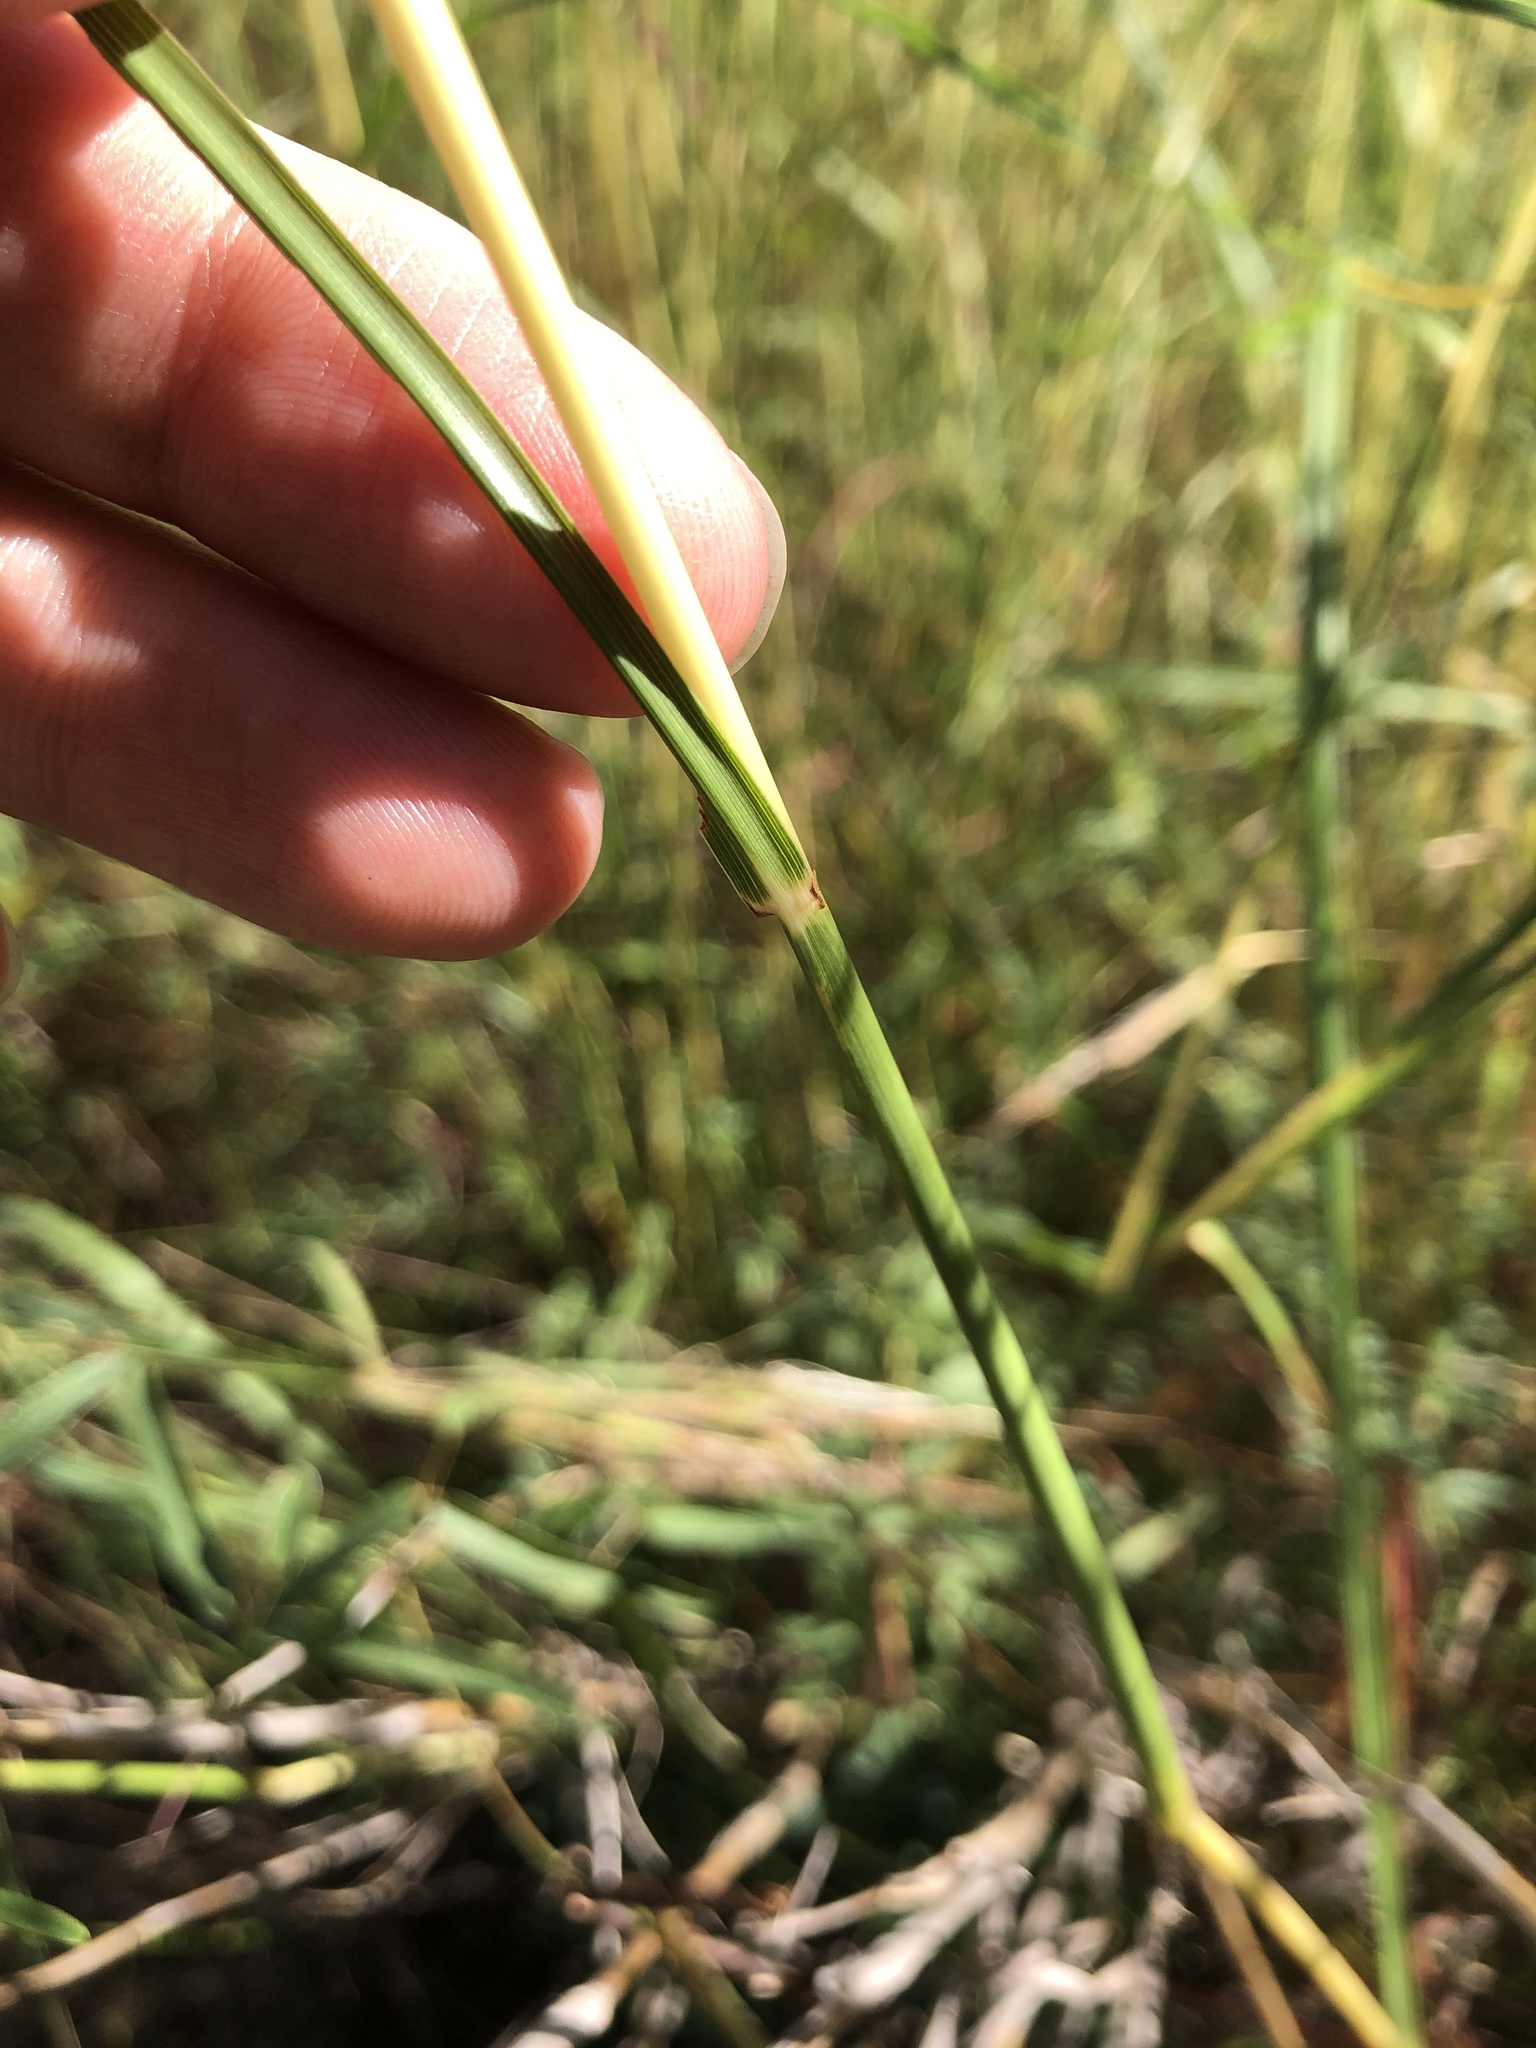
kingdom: Plantae
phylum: Tracheophyta
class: Liliopsida
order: Poales
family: Poaceae
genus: Hyparrhenia
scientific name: Hyparrhenia hirta
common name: Thatching grass
